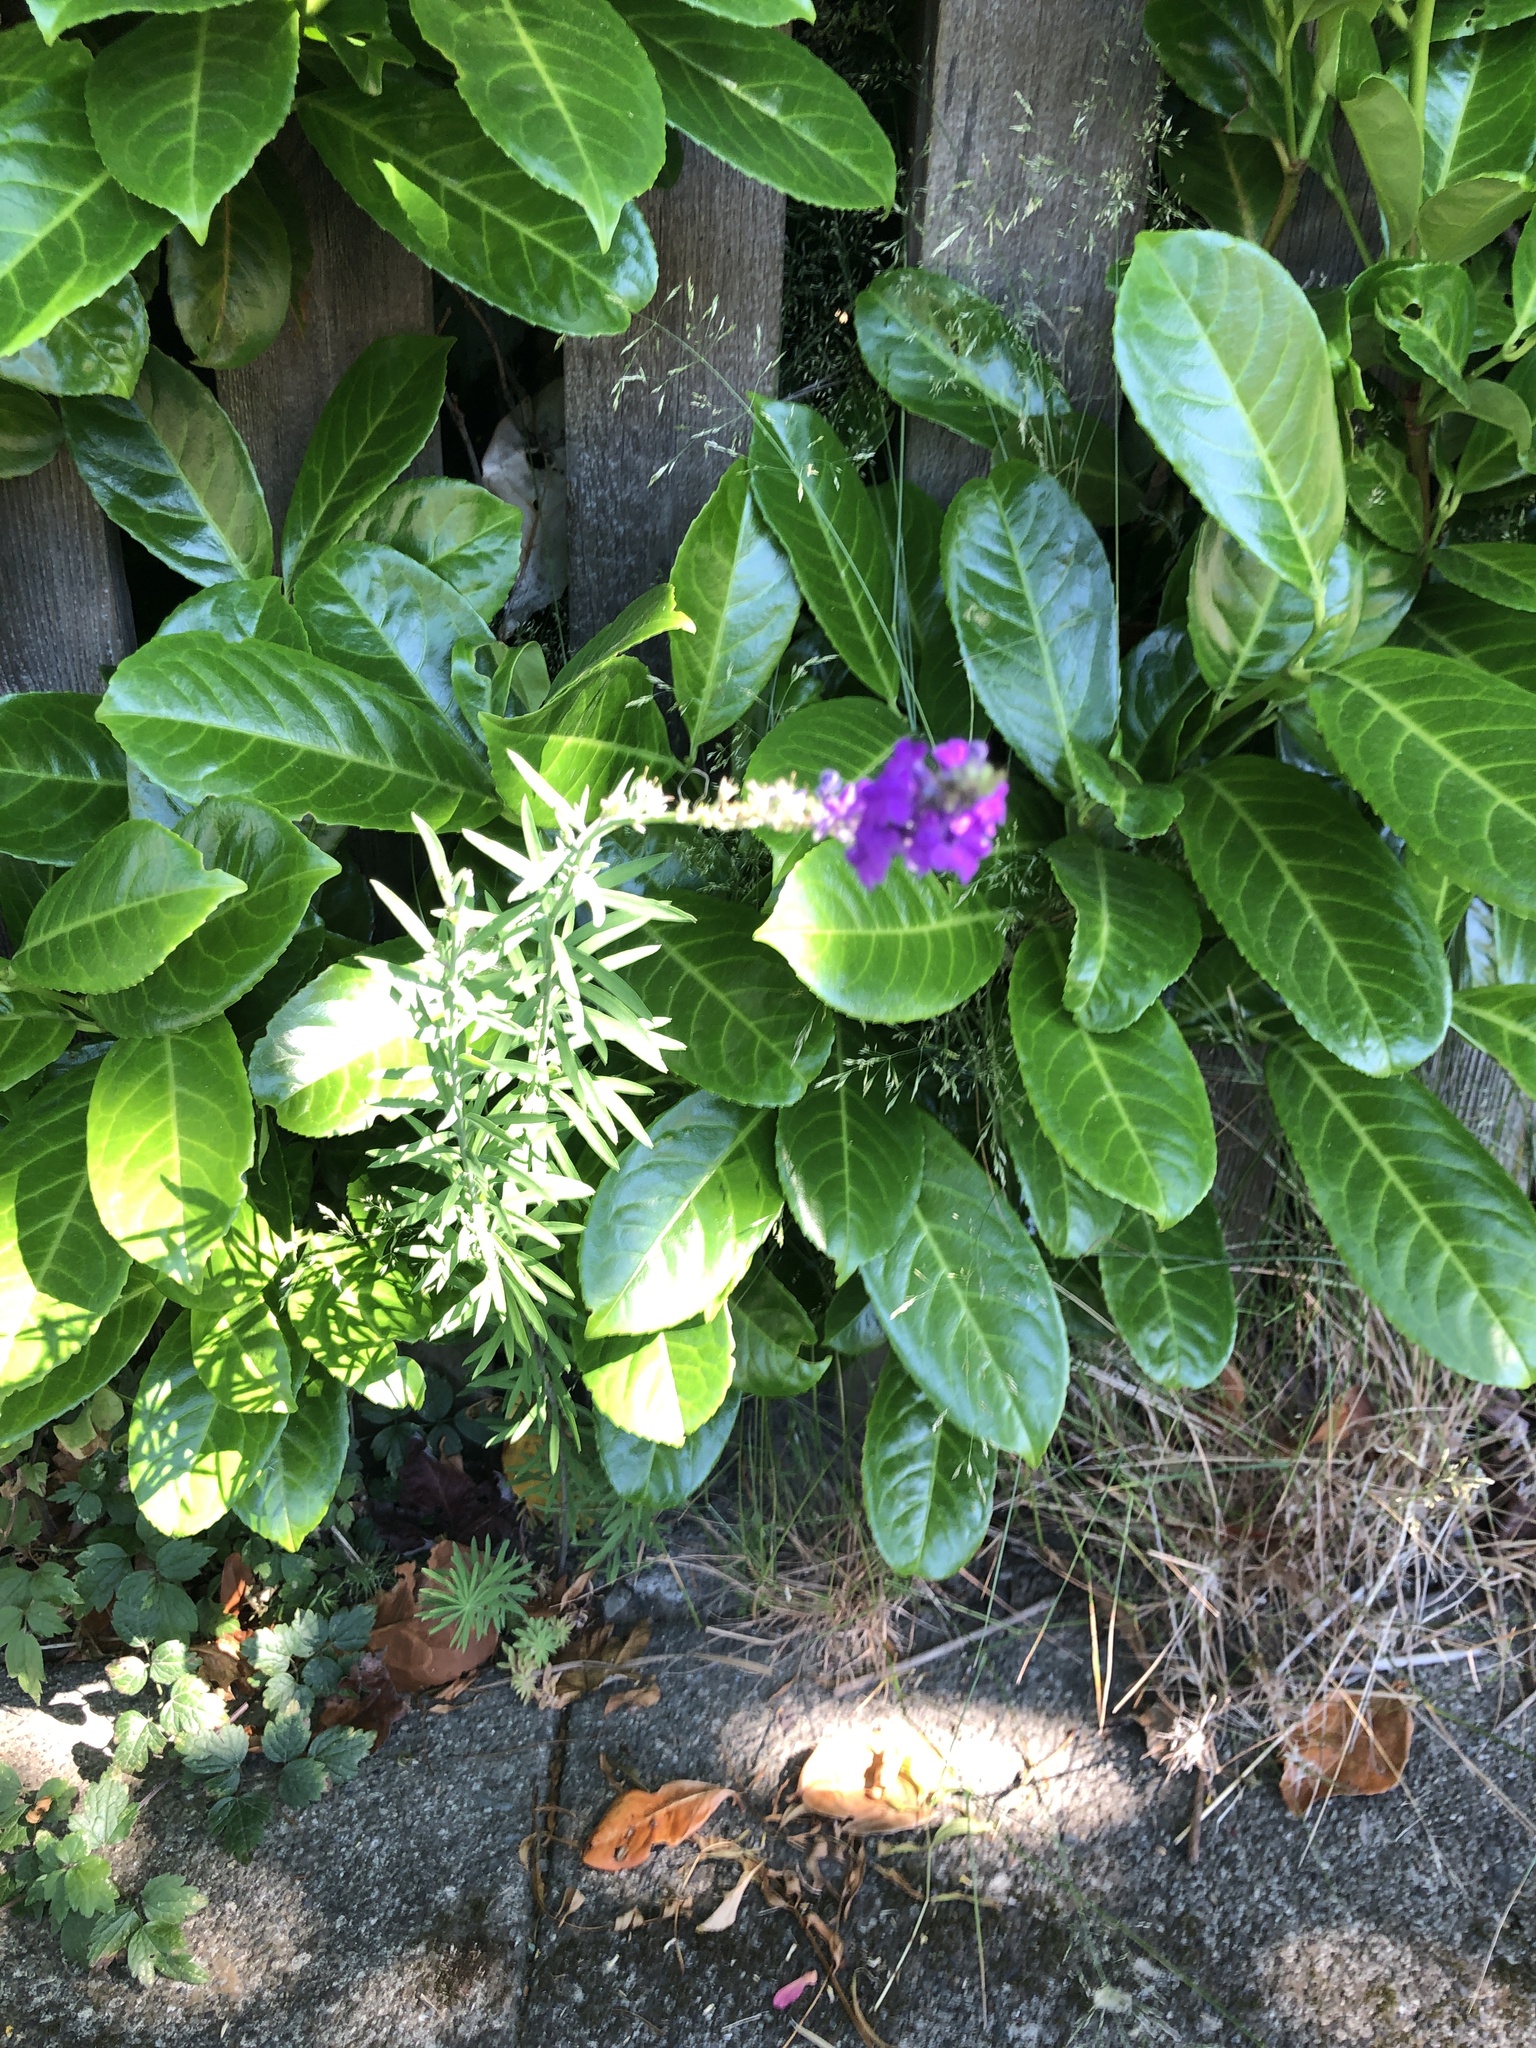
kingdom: Plantae
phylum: Tracheophyta
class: Magnoliopsida
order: Lamiales
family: Plantaginaceae
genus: Linaria
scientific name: Linaria purpurea
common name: Purple toadflax
